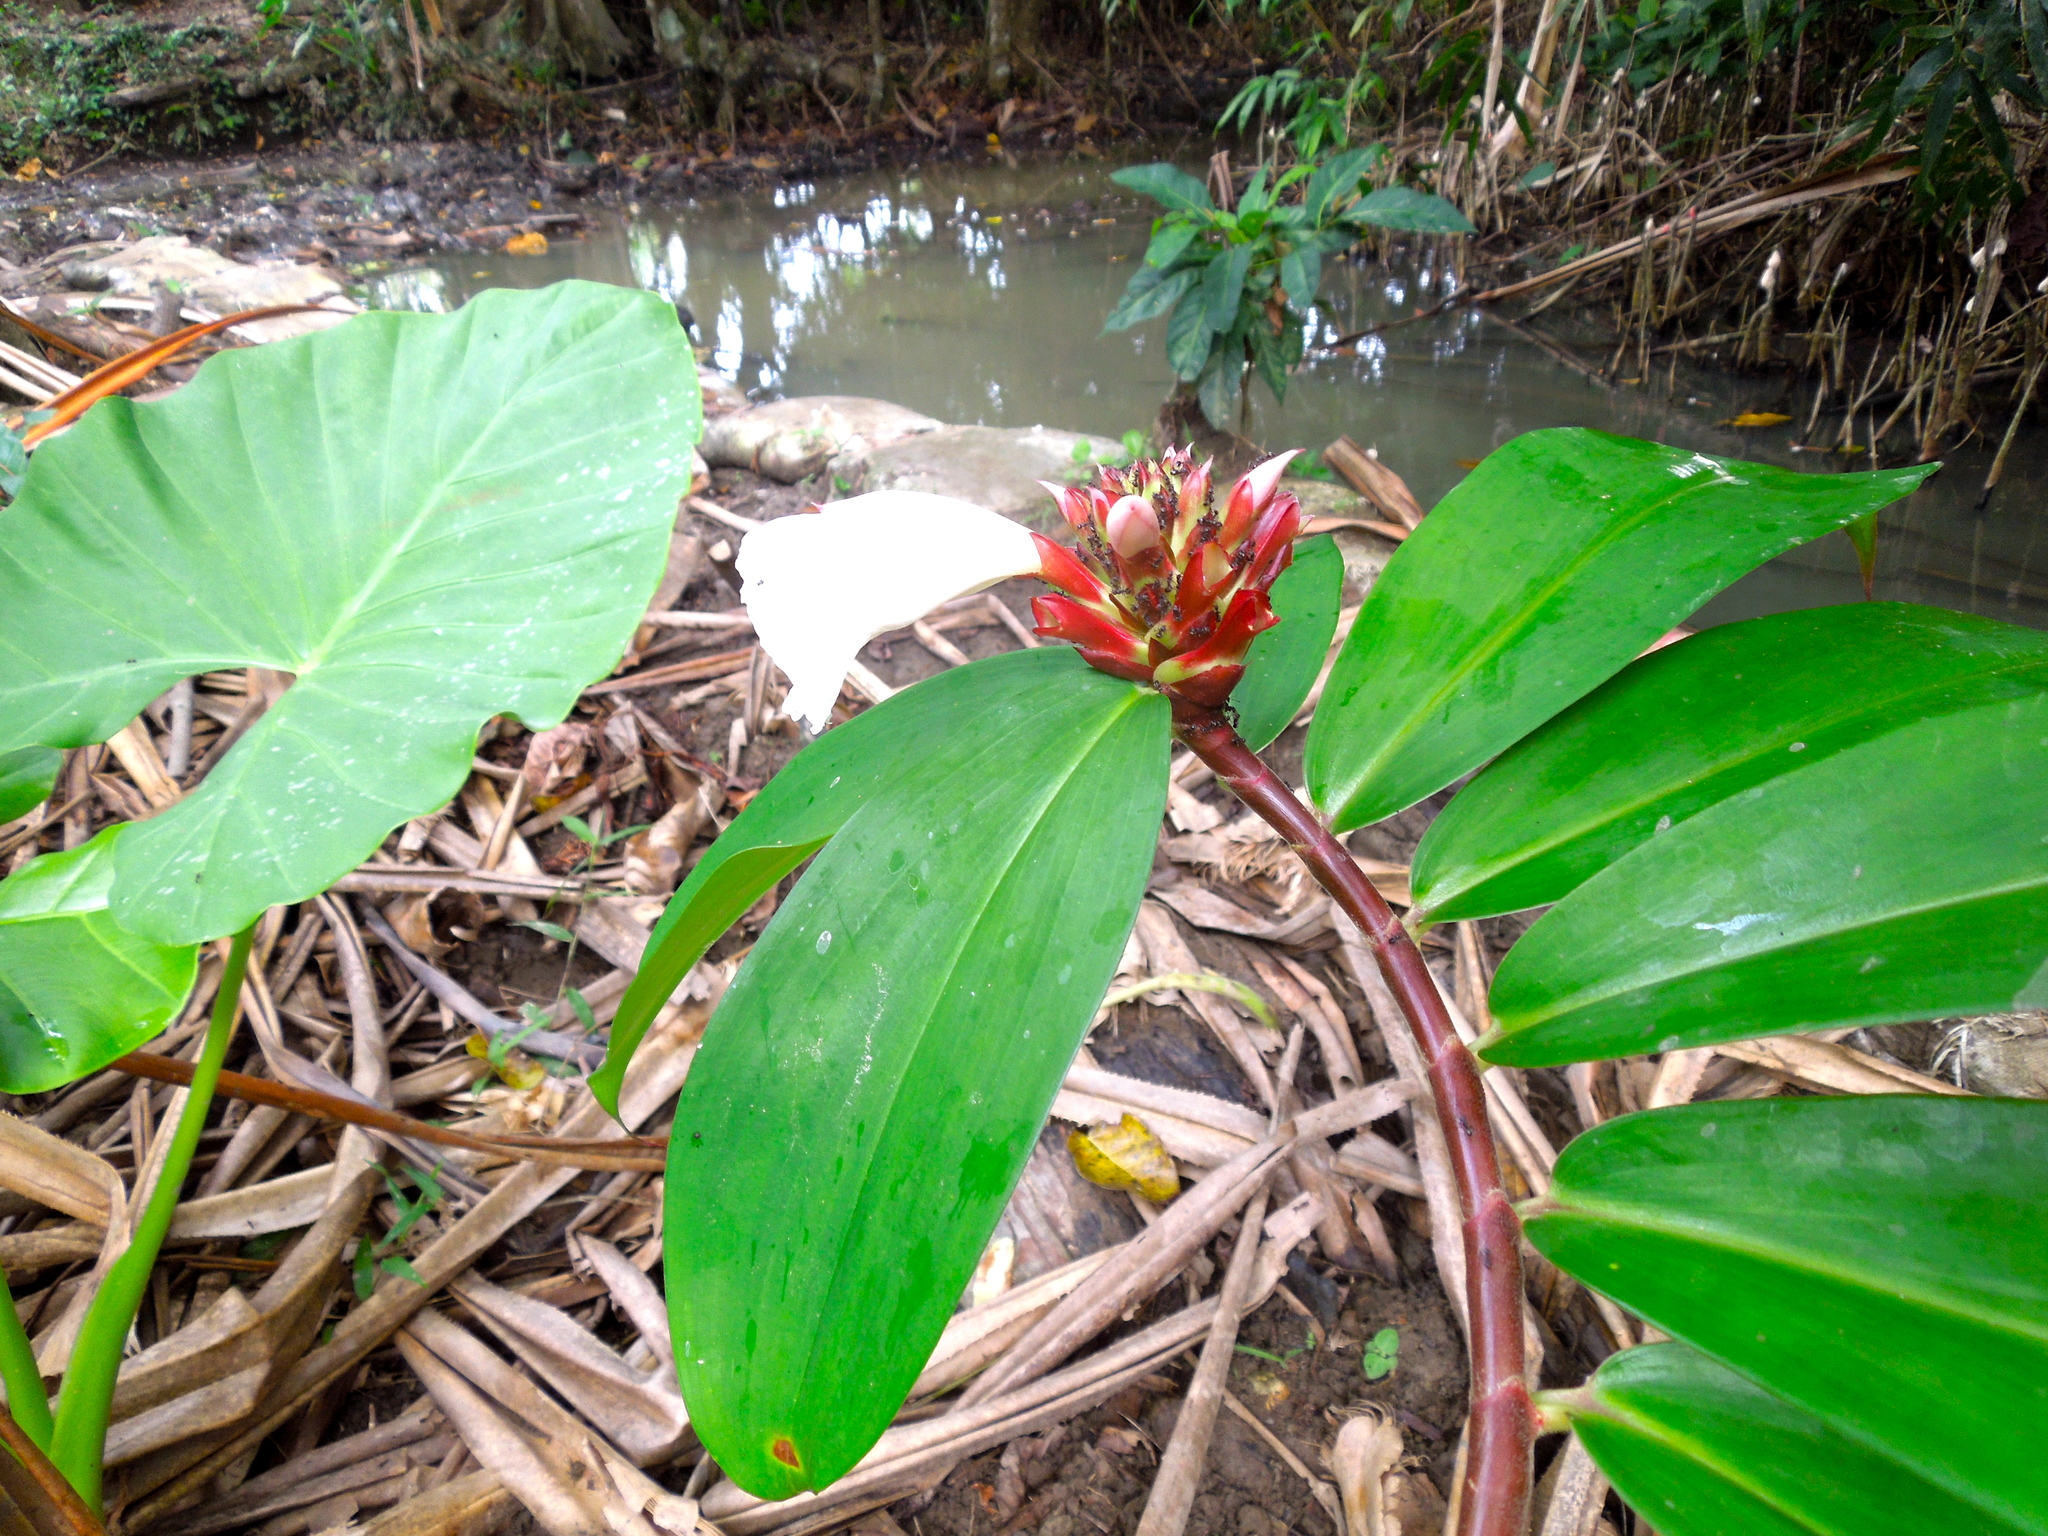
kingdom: Plantae
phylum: Tracheophyta
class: Liliopsida
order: Zingiberales
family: Costaceae
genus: Hellenia
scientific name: Hellenia speciosa
